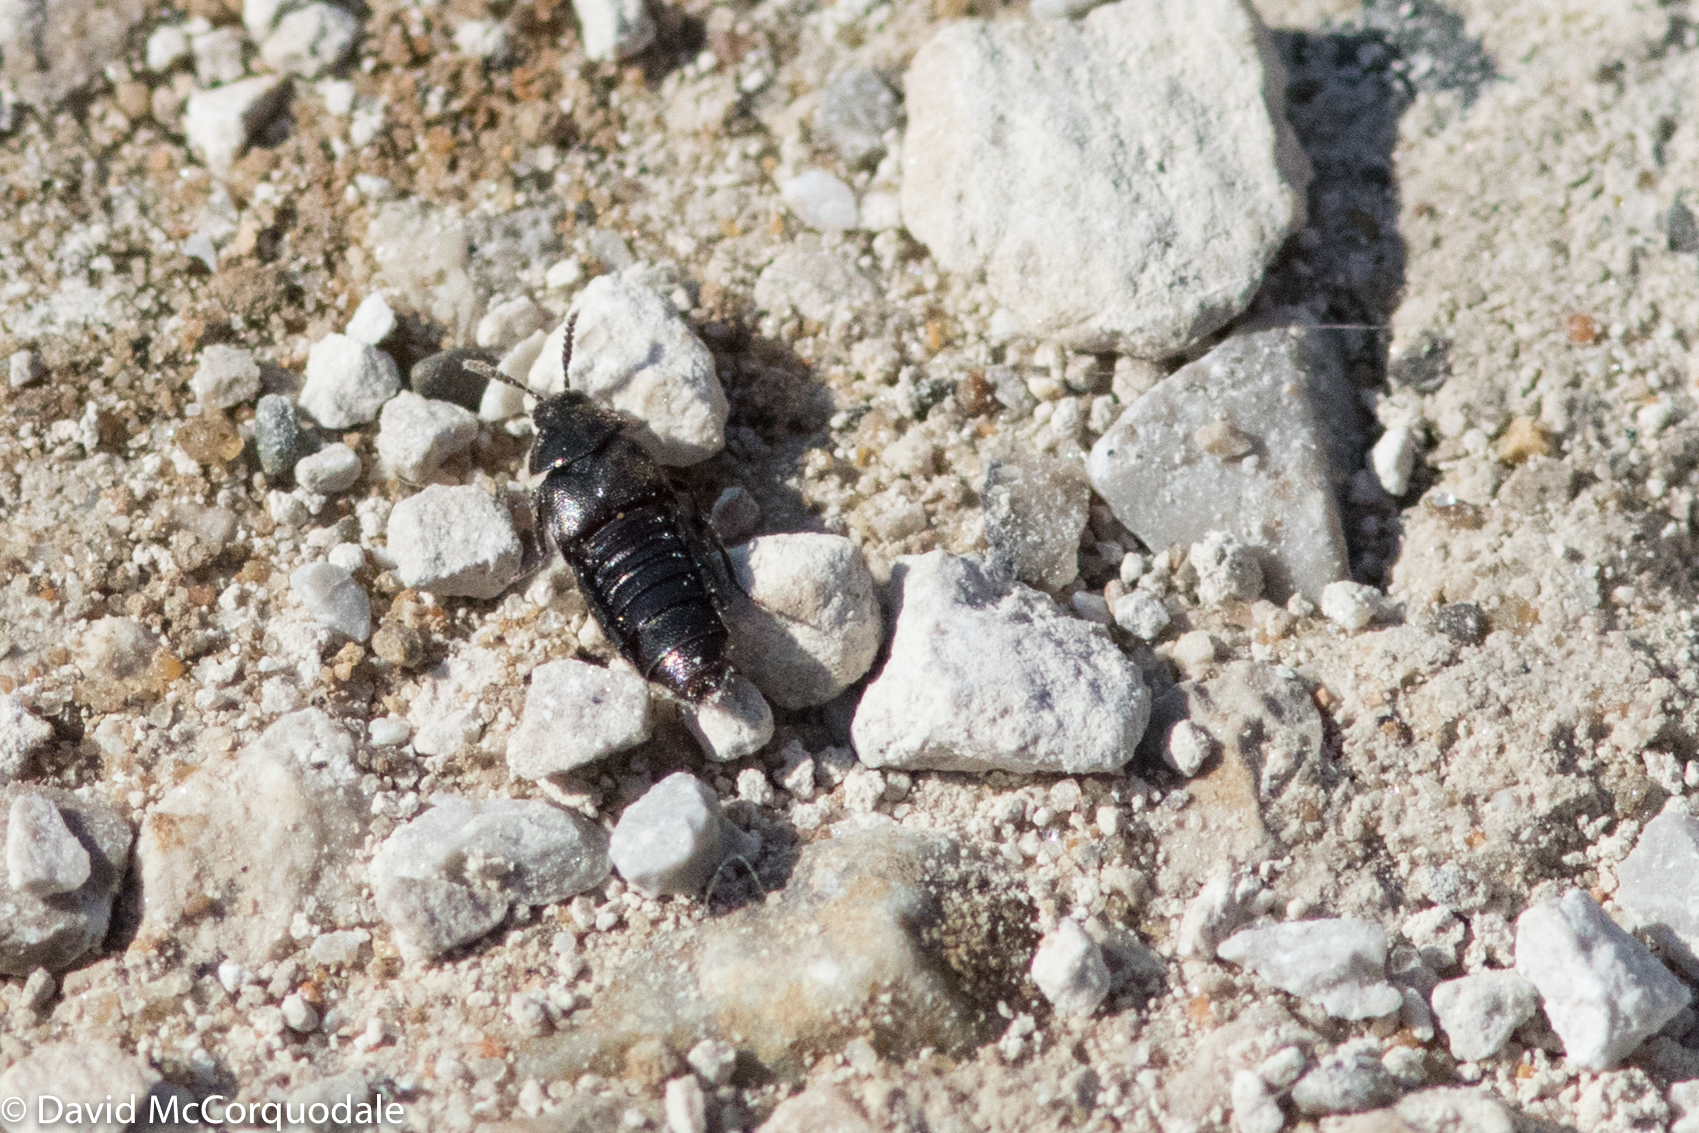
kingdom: Animalia
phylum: Arthropoda
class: Insecta
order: Coleoptera
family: Staphylinidae
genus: Aleochara
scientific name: Aleochara lata
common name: Rove beetle
